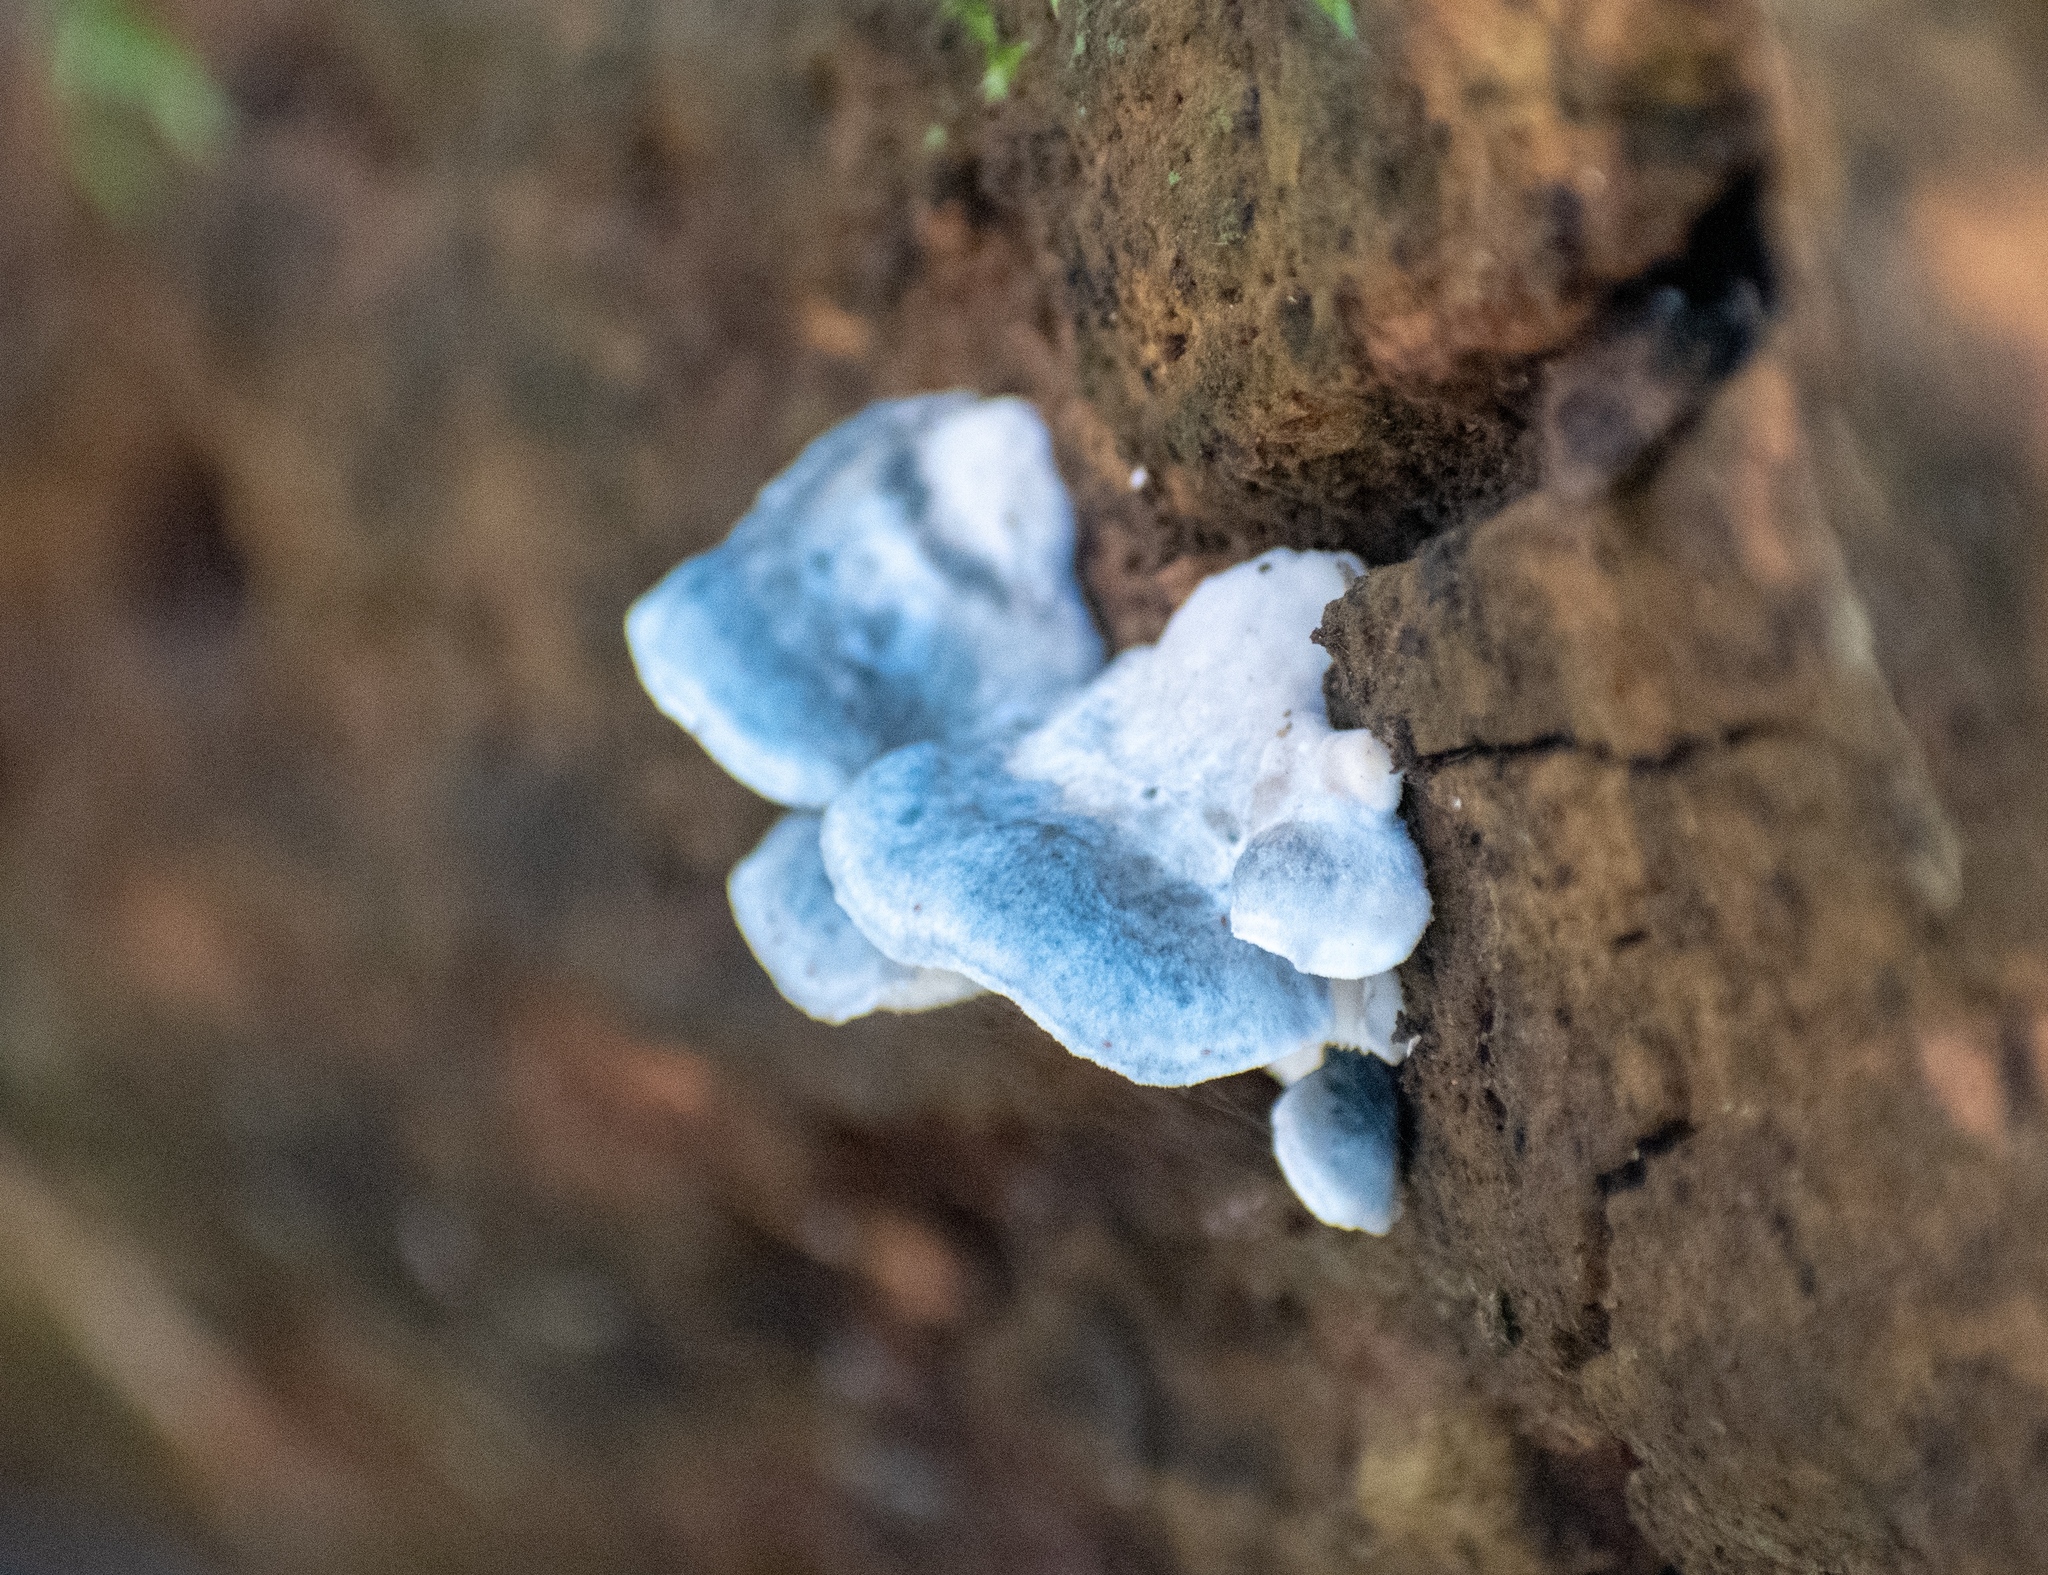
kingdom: Fungi
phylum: Basidiomycota
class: Agaricomycetes
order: Polyporales
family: Polyporaceae
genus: Cyanosporus
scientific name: Cyanosporus caesius
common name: Blue cheese polypore
